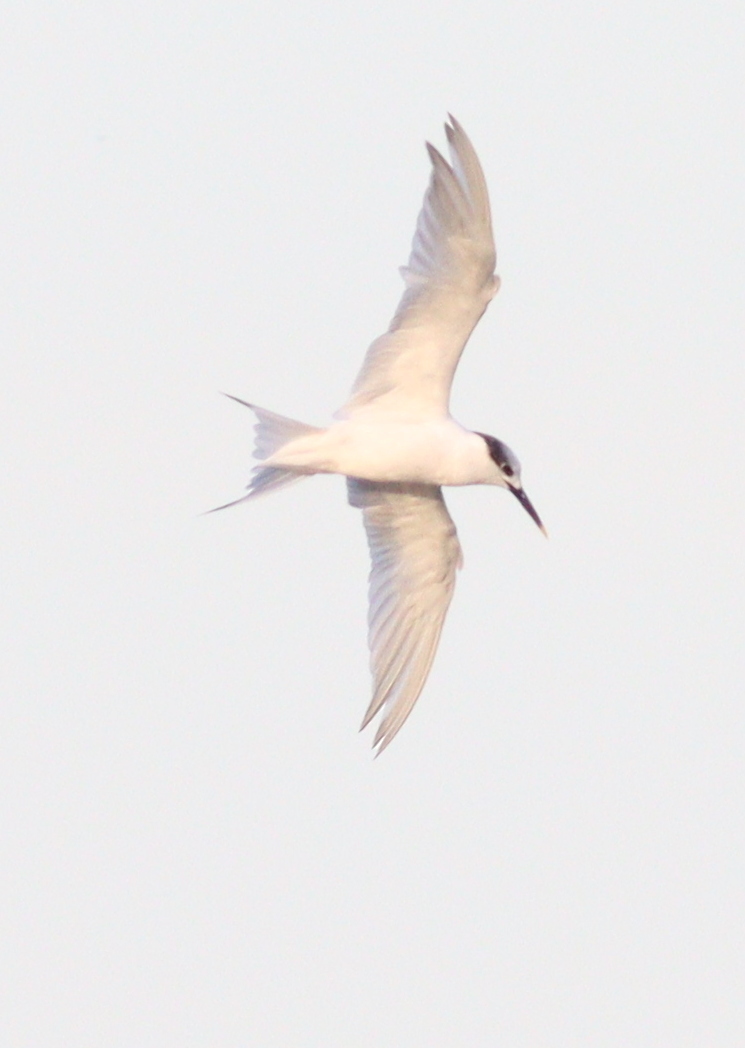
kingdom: Animalia
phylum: Chordata
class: Aves
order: Charadriiformes
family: Laridae
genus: Thalasseus
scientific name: Thalasseus sandvicensis
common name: Sandwich tern
